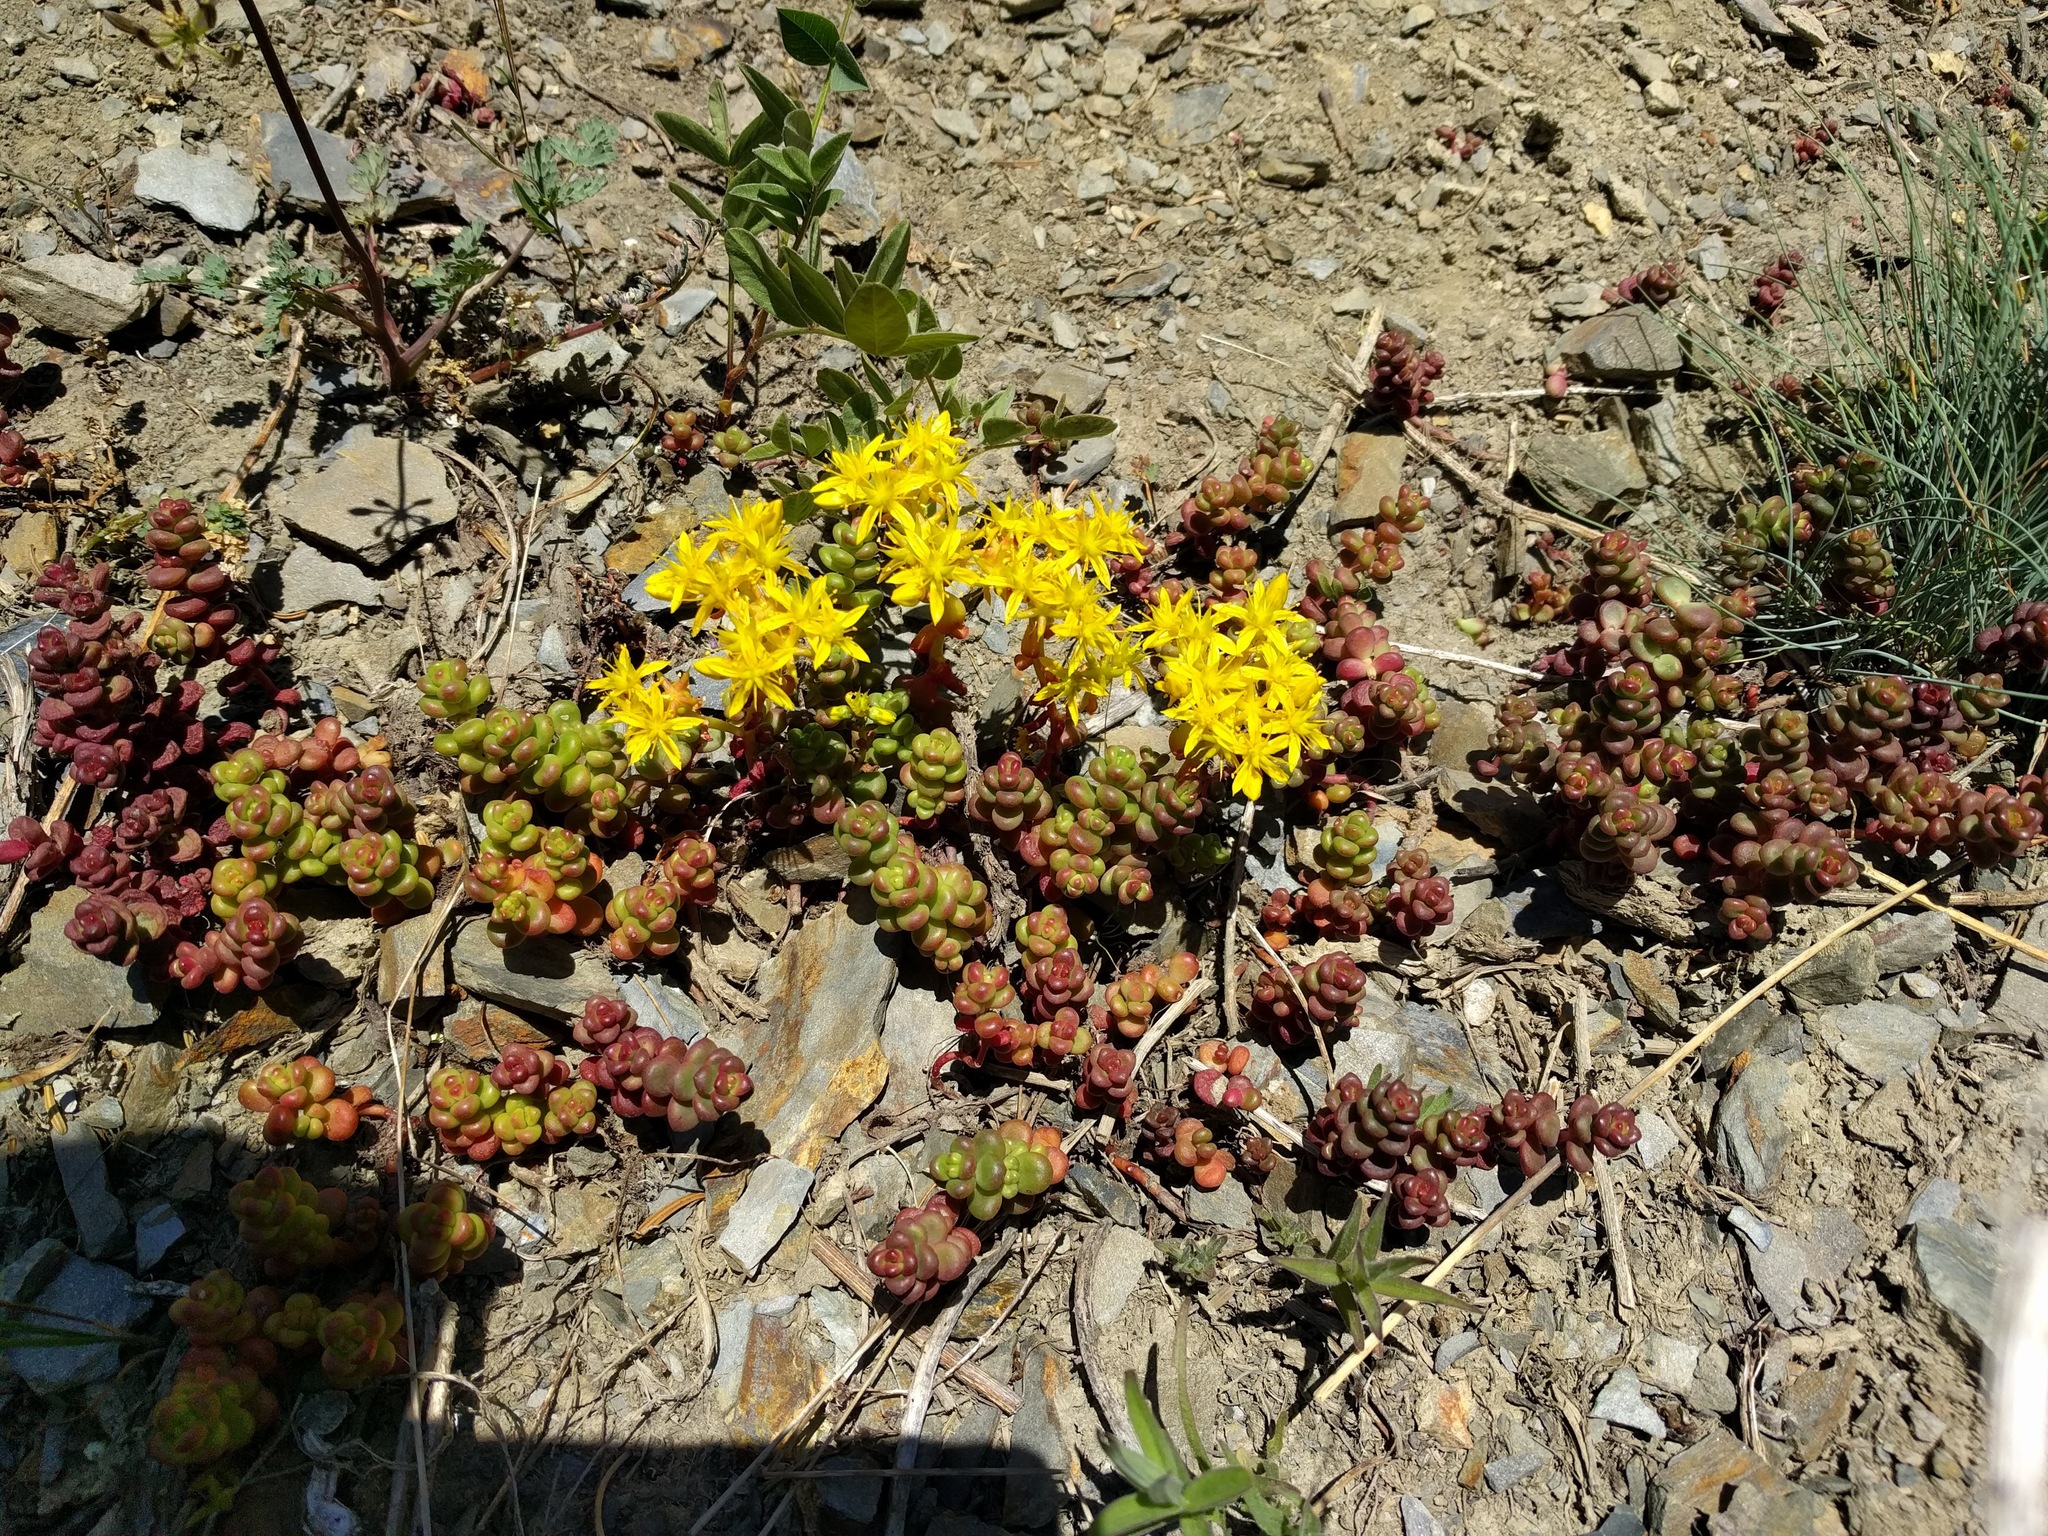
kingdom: Plantae
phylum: Tracheophyta
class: Magnoliopsida
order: Saxifragales
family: Crassulaceae
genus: Sedum
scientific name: Sedum divergens
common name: Cascade stonecrop
